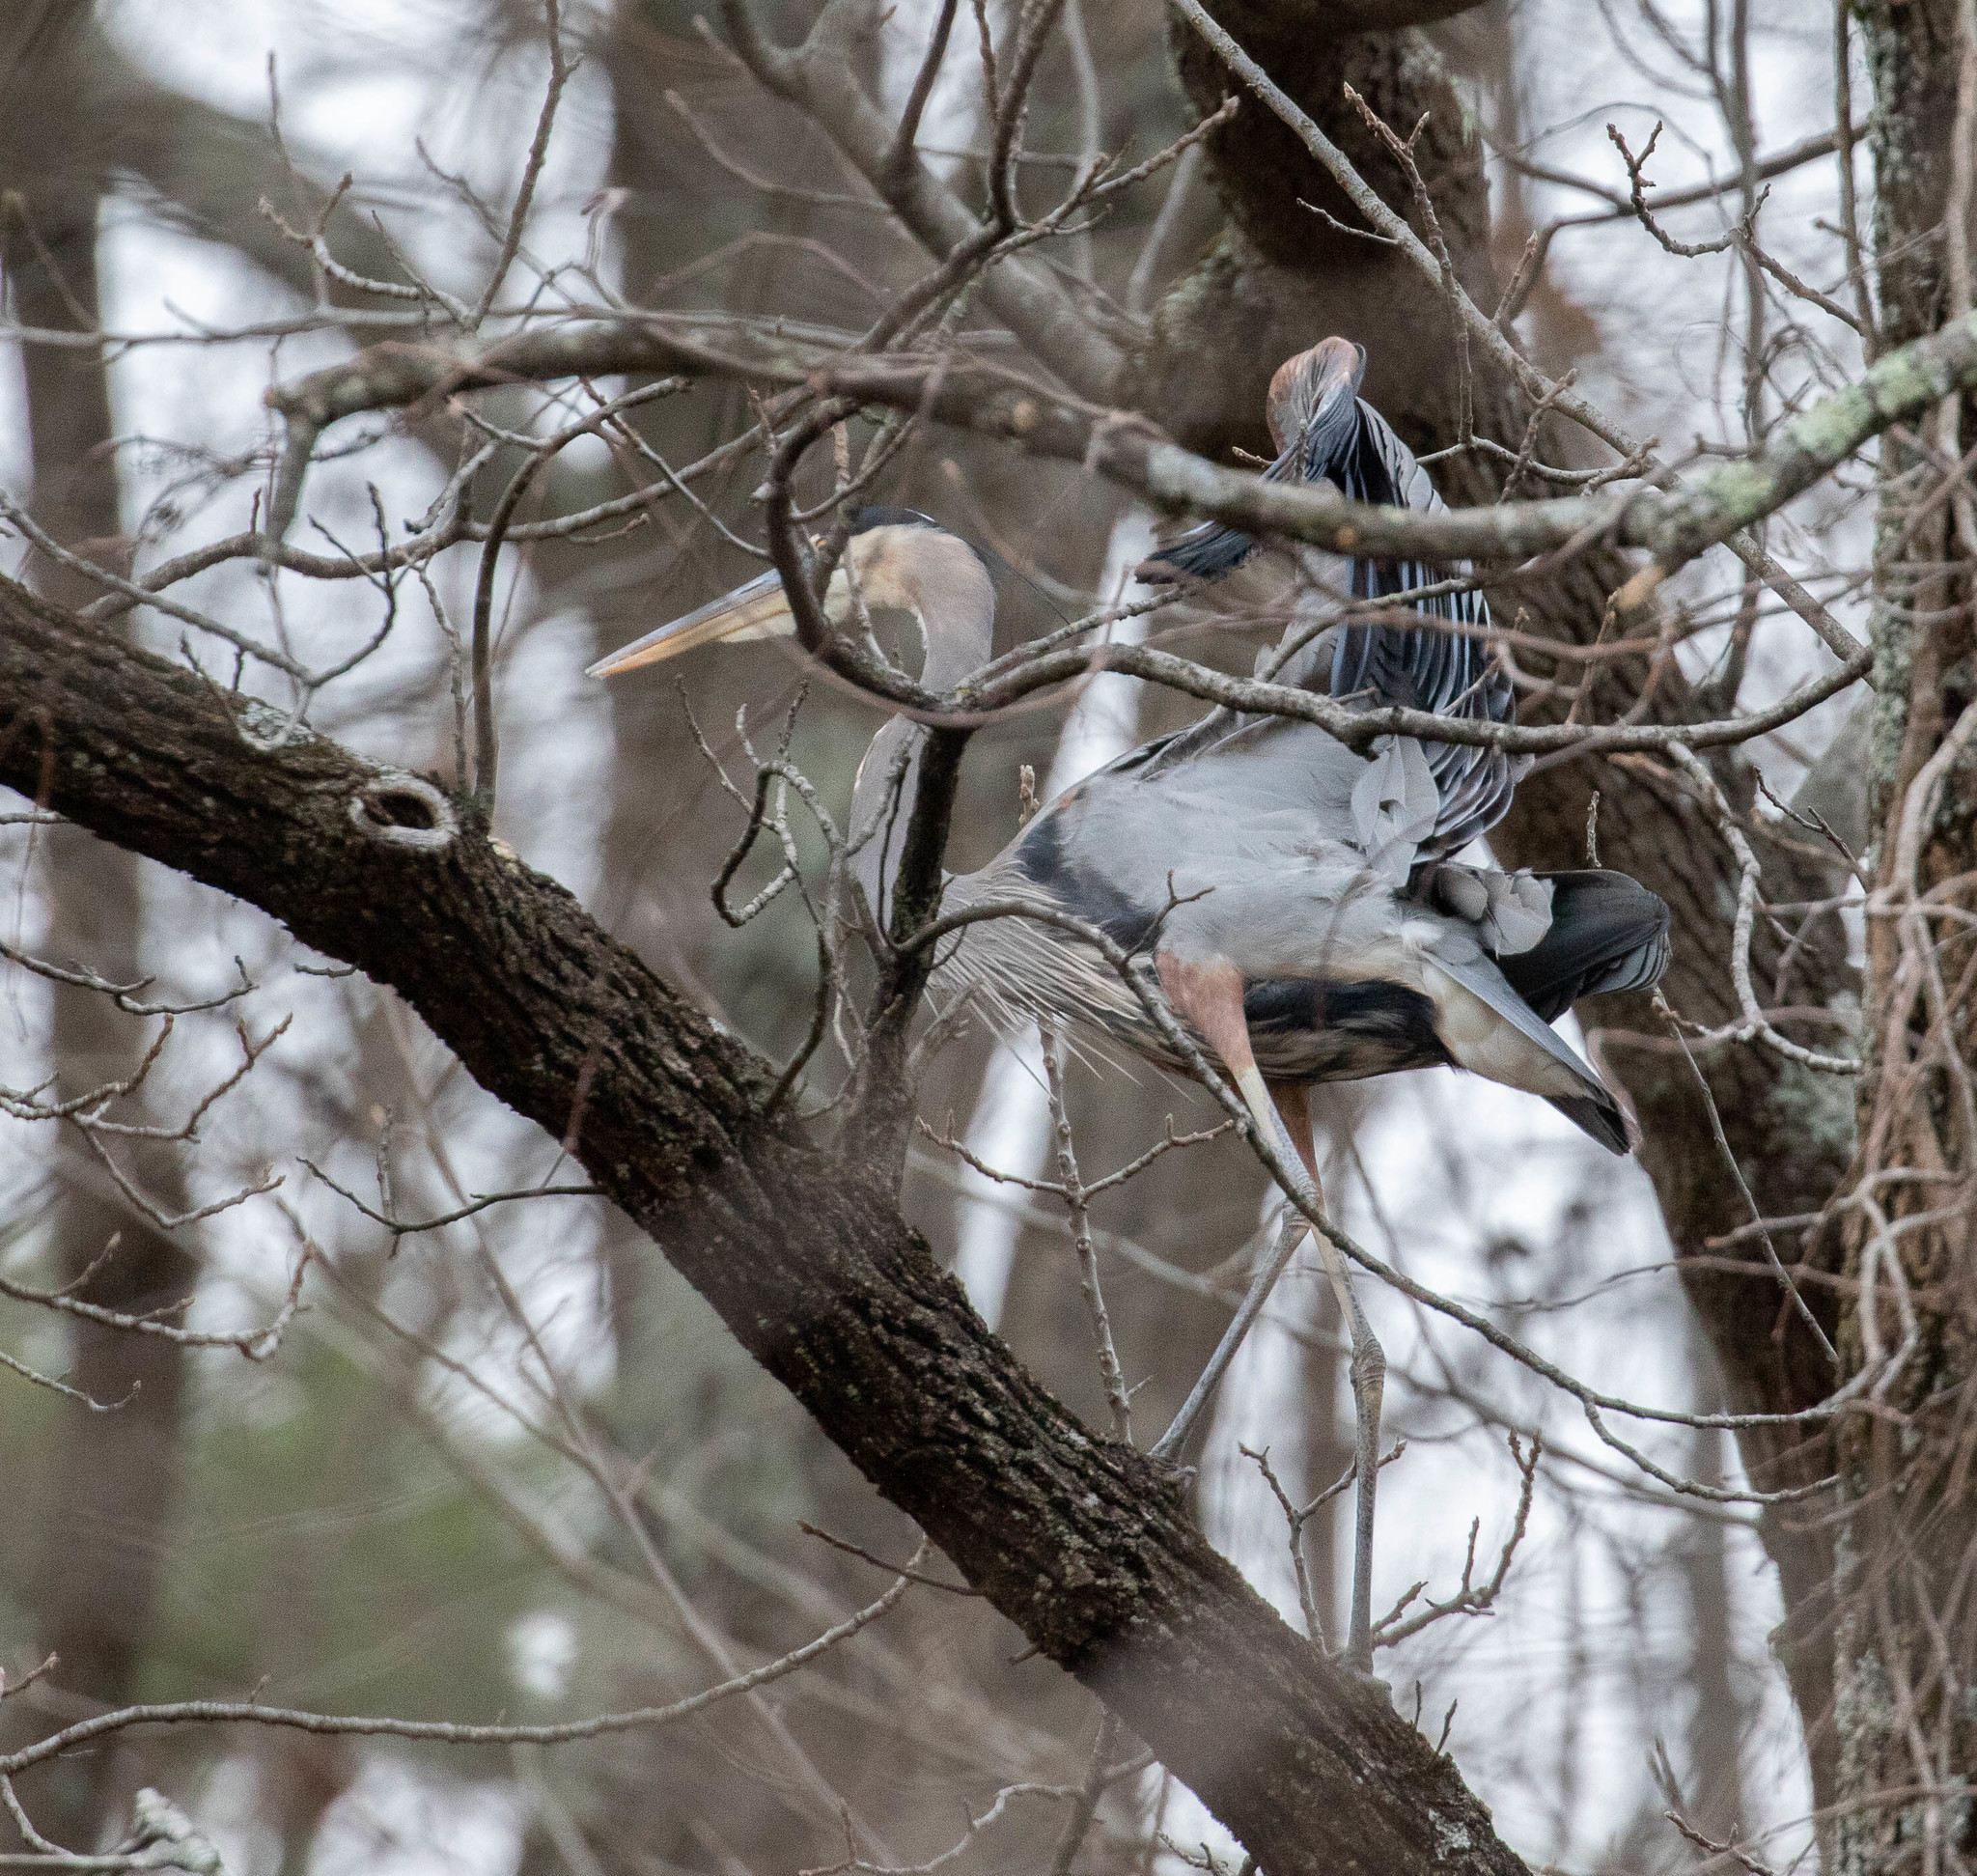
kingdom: Animalia
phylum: Chordata
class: Aves
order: Pelecaniformes
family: Ardeidae
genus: Ardea
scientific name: Ardea herodias
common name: Great blue heron
